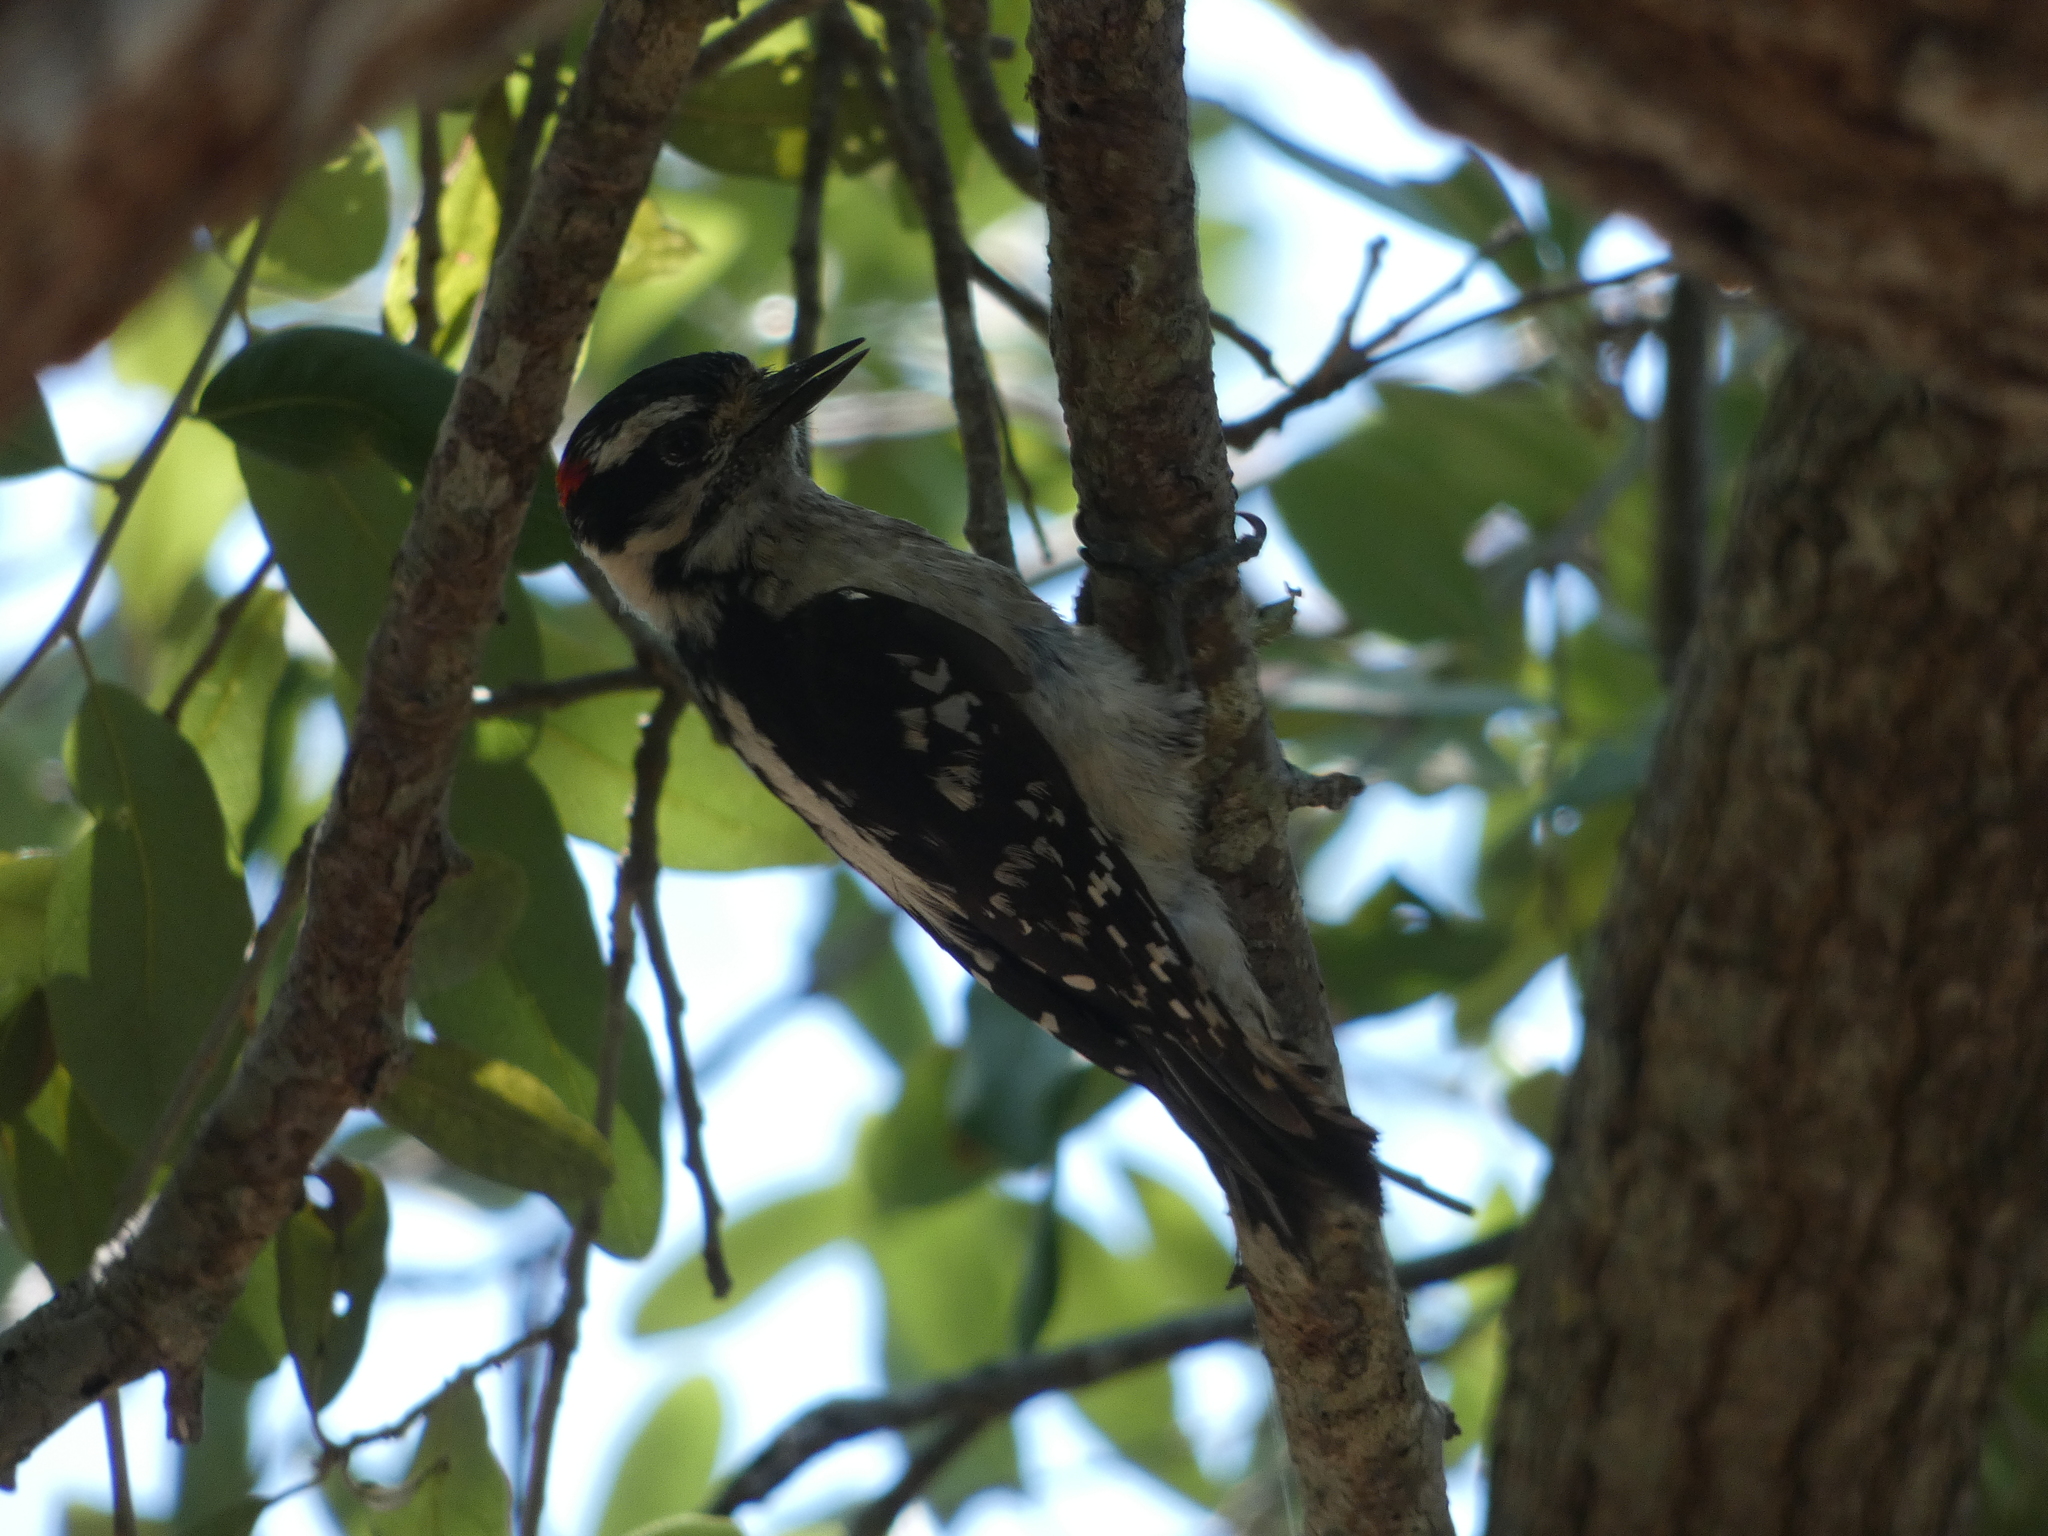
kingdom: Animalia
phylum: Chordata
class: Aves
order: Piciformes
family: Picidae
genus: Dryobates
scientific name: Dryobates pubescens
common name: Downy woodpecker
